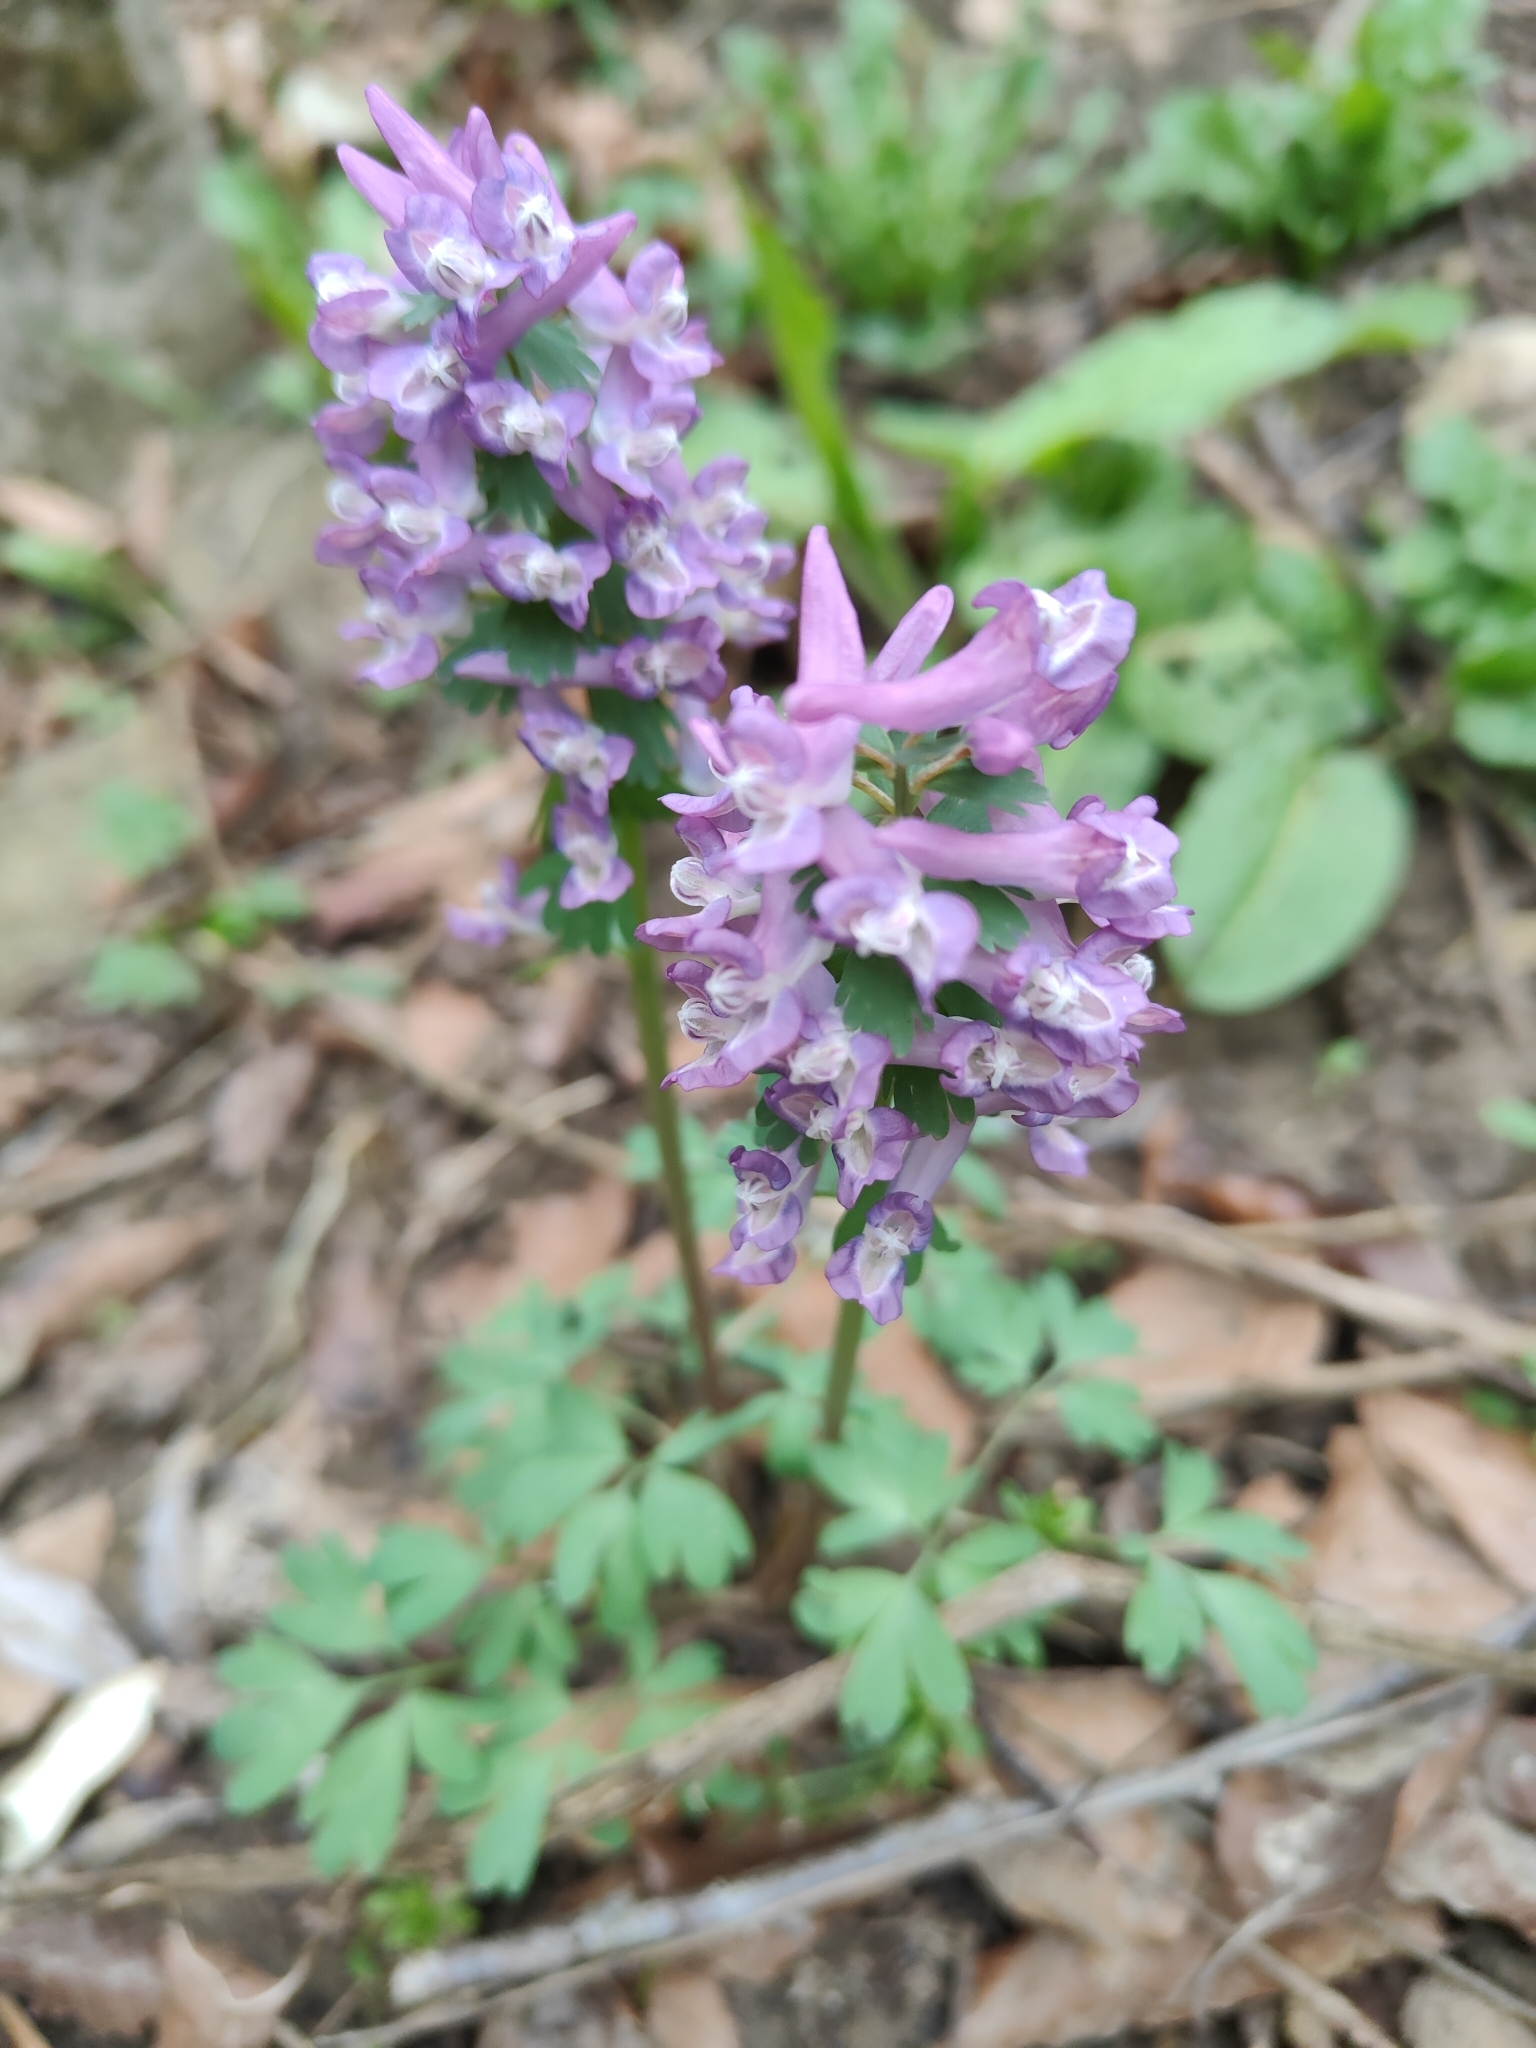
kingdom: Plantae
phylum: Tracheophyta
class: Magnoliopsida
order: Ranunculales
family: Papaveraceae
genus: Corydalis
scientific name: Corydalis solida
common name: Bird-in-a-bush
